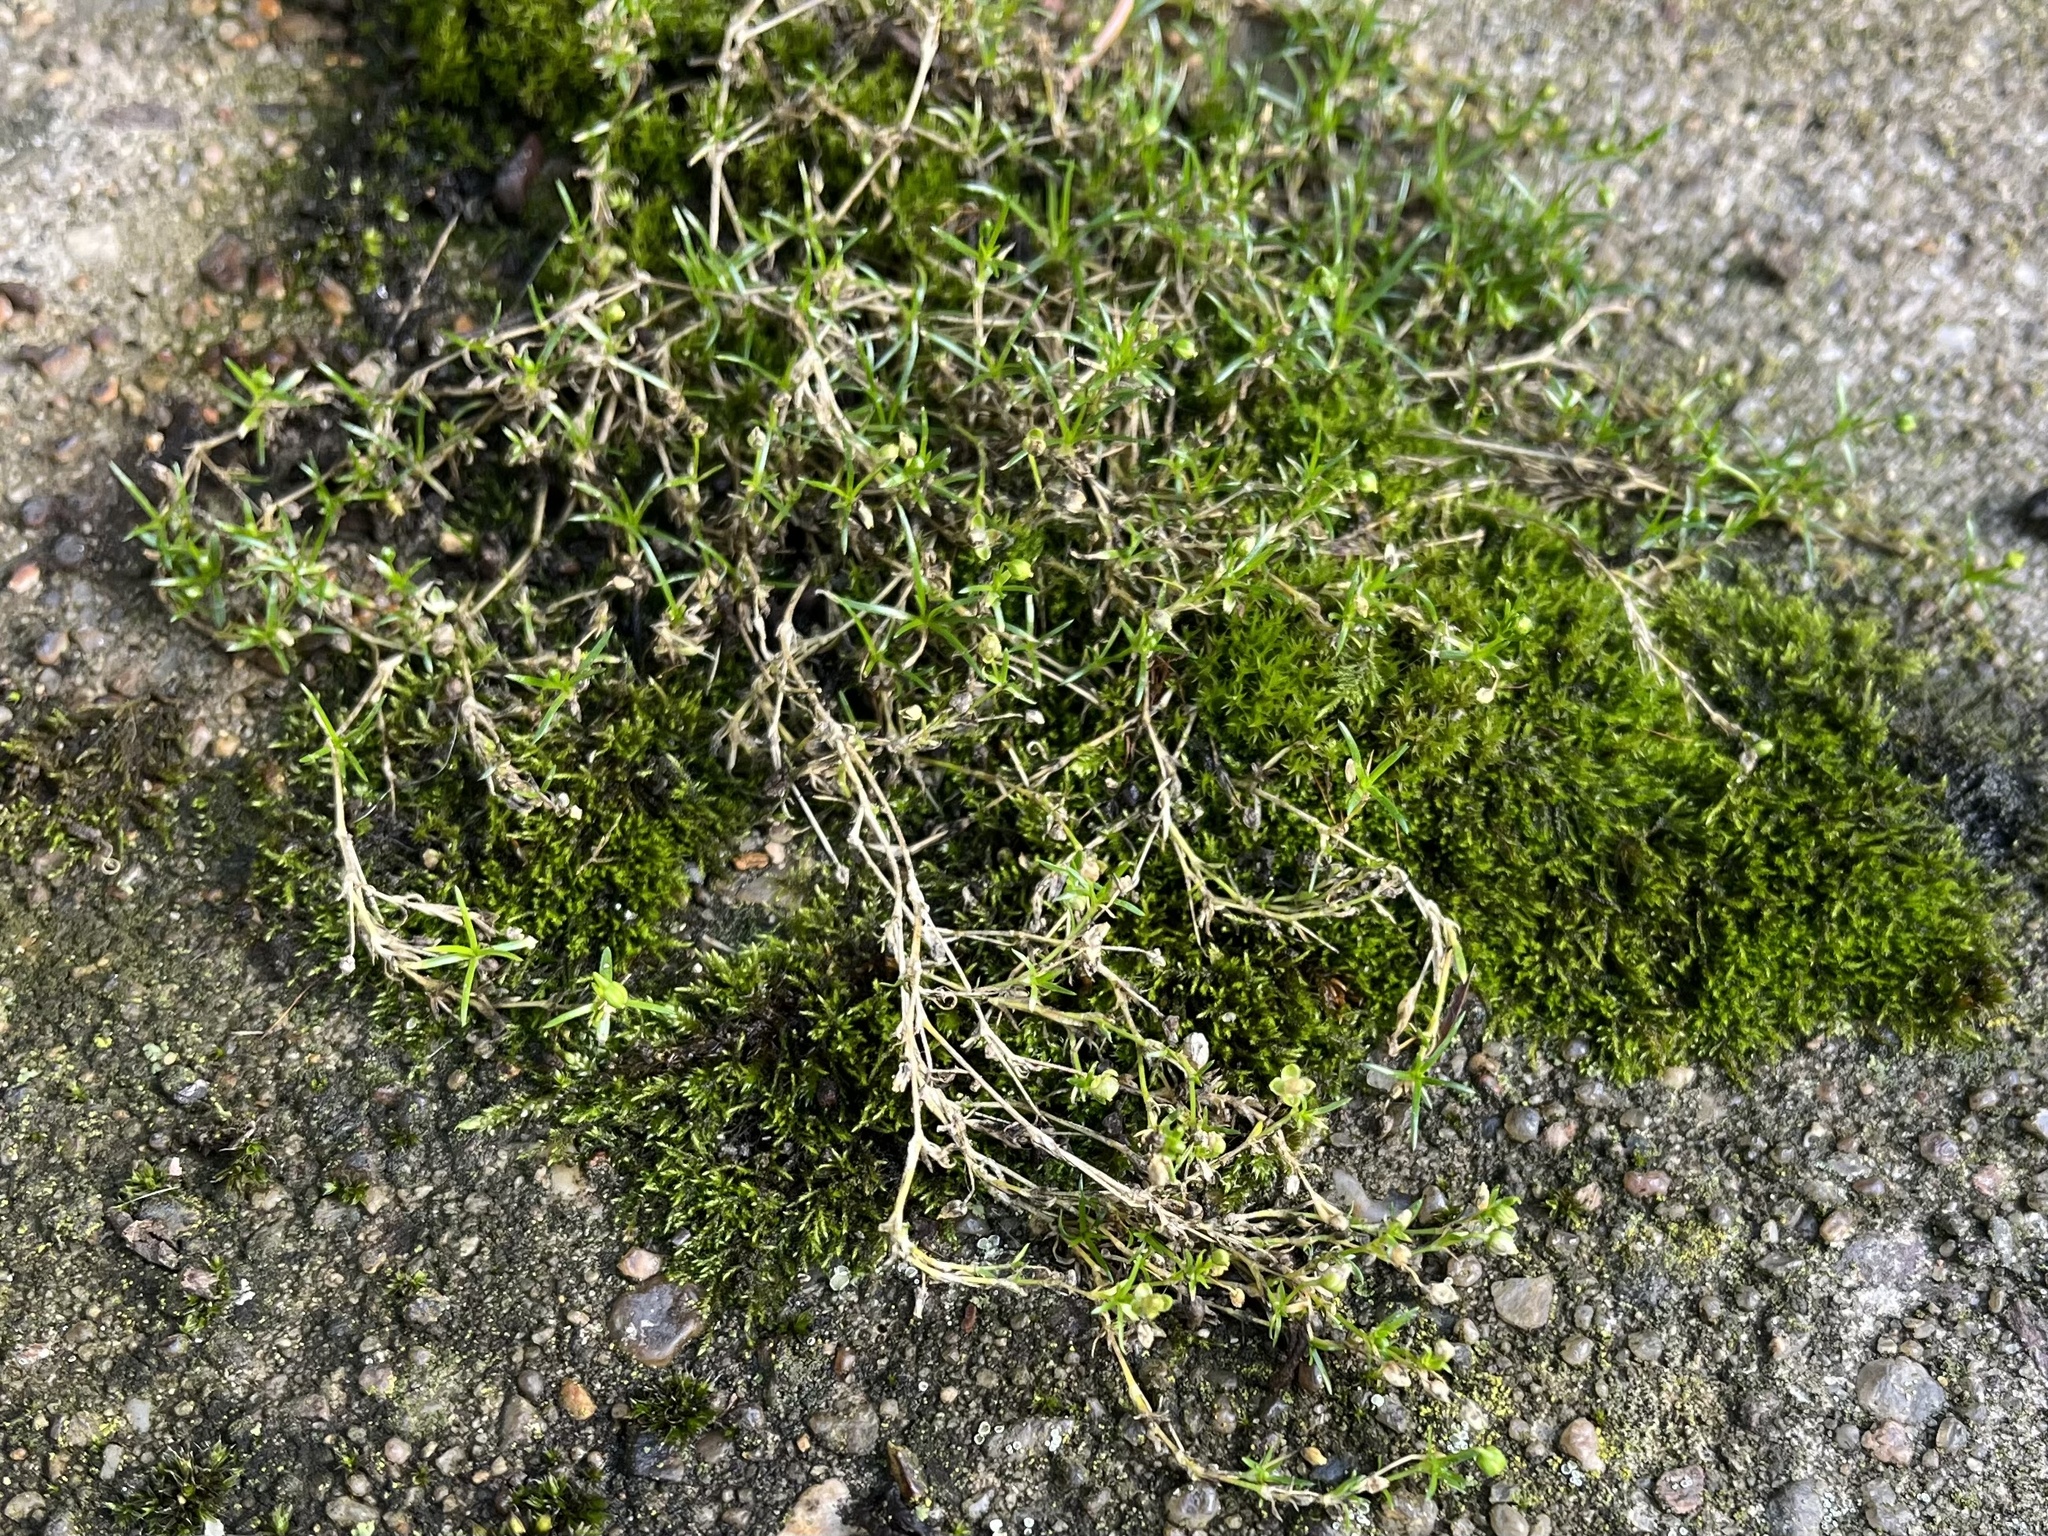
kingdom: Plantae
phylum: Tracheophyta
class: Magnoliopsida
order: Caryophyllales
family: Caryophyllaceae
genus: Sagina
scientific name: Sagina procumbens
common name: Procumbent pearlwort
